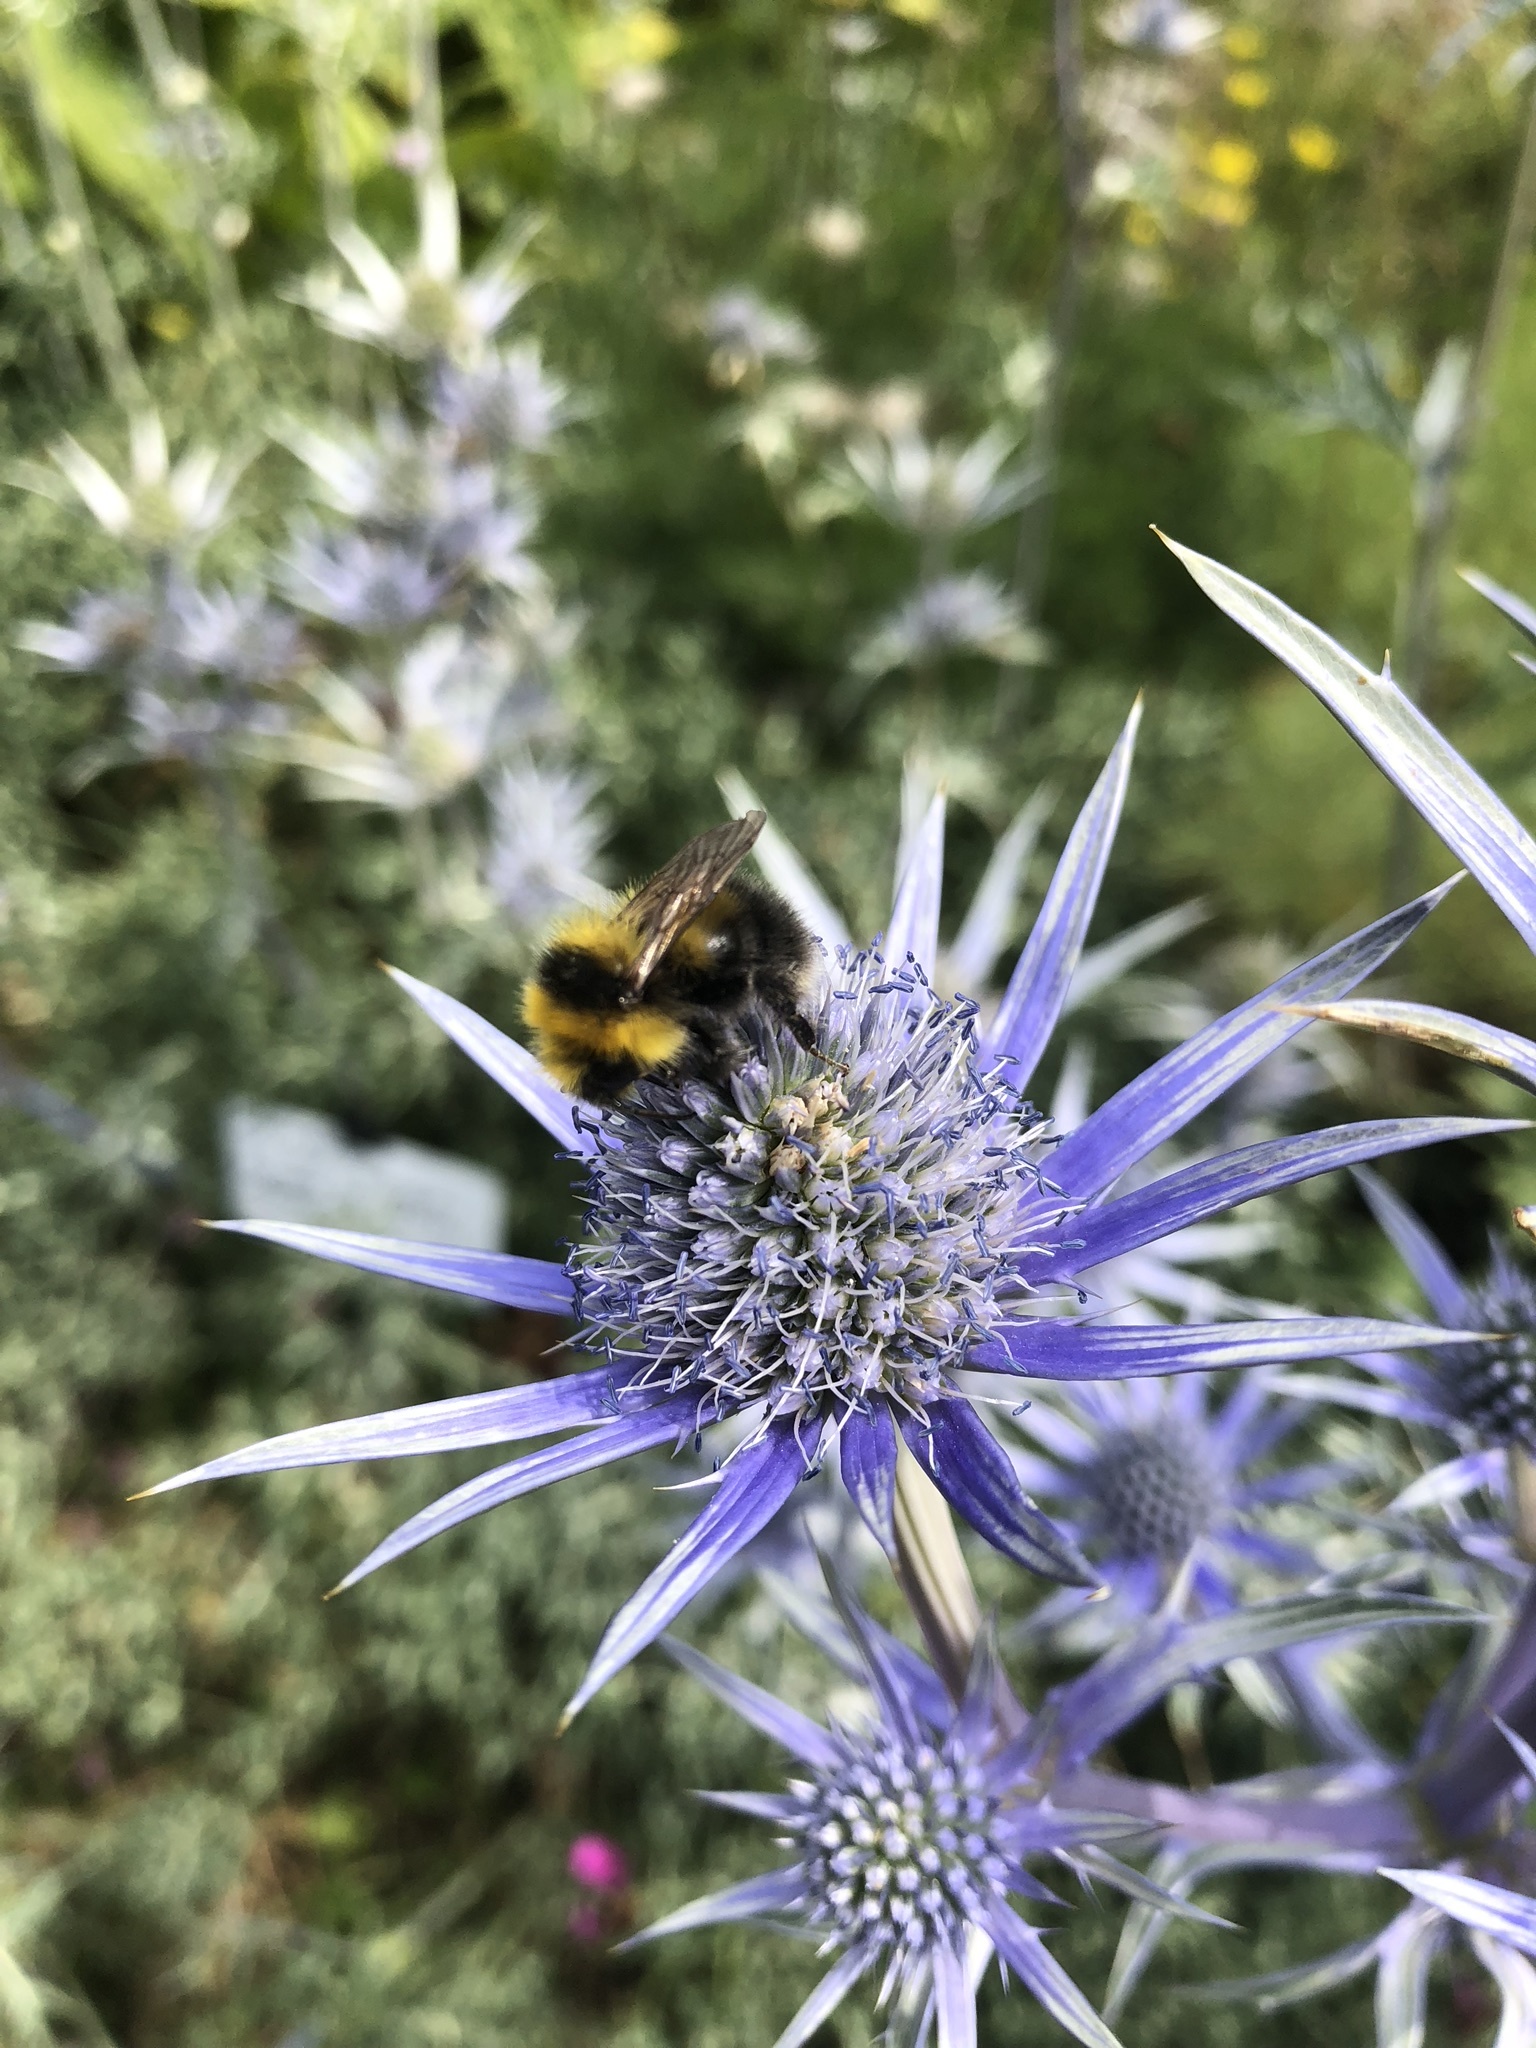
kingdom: Animalia
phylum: Arthropoda
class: Insecta
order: Hymenoptera
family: Apidae
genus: Bombus
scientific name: Bombus jonellus
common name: Heath humble-bee
